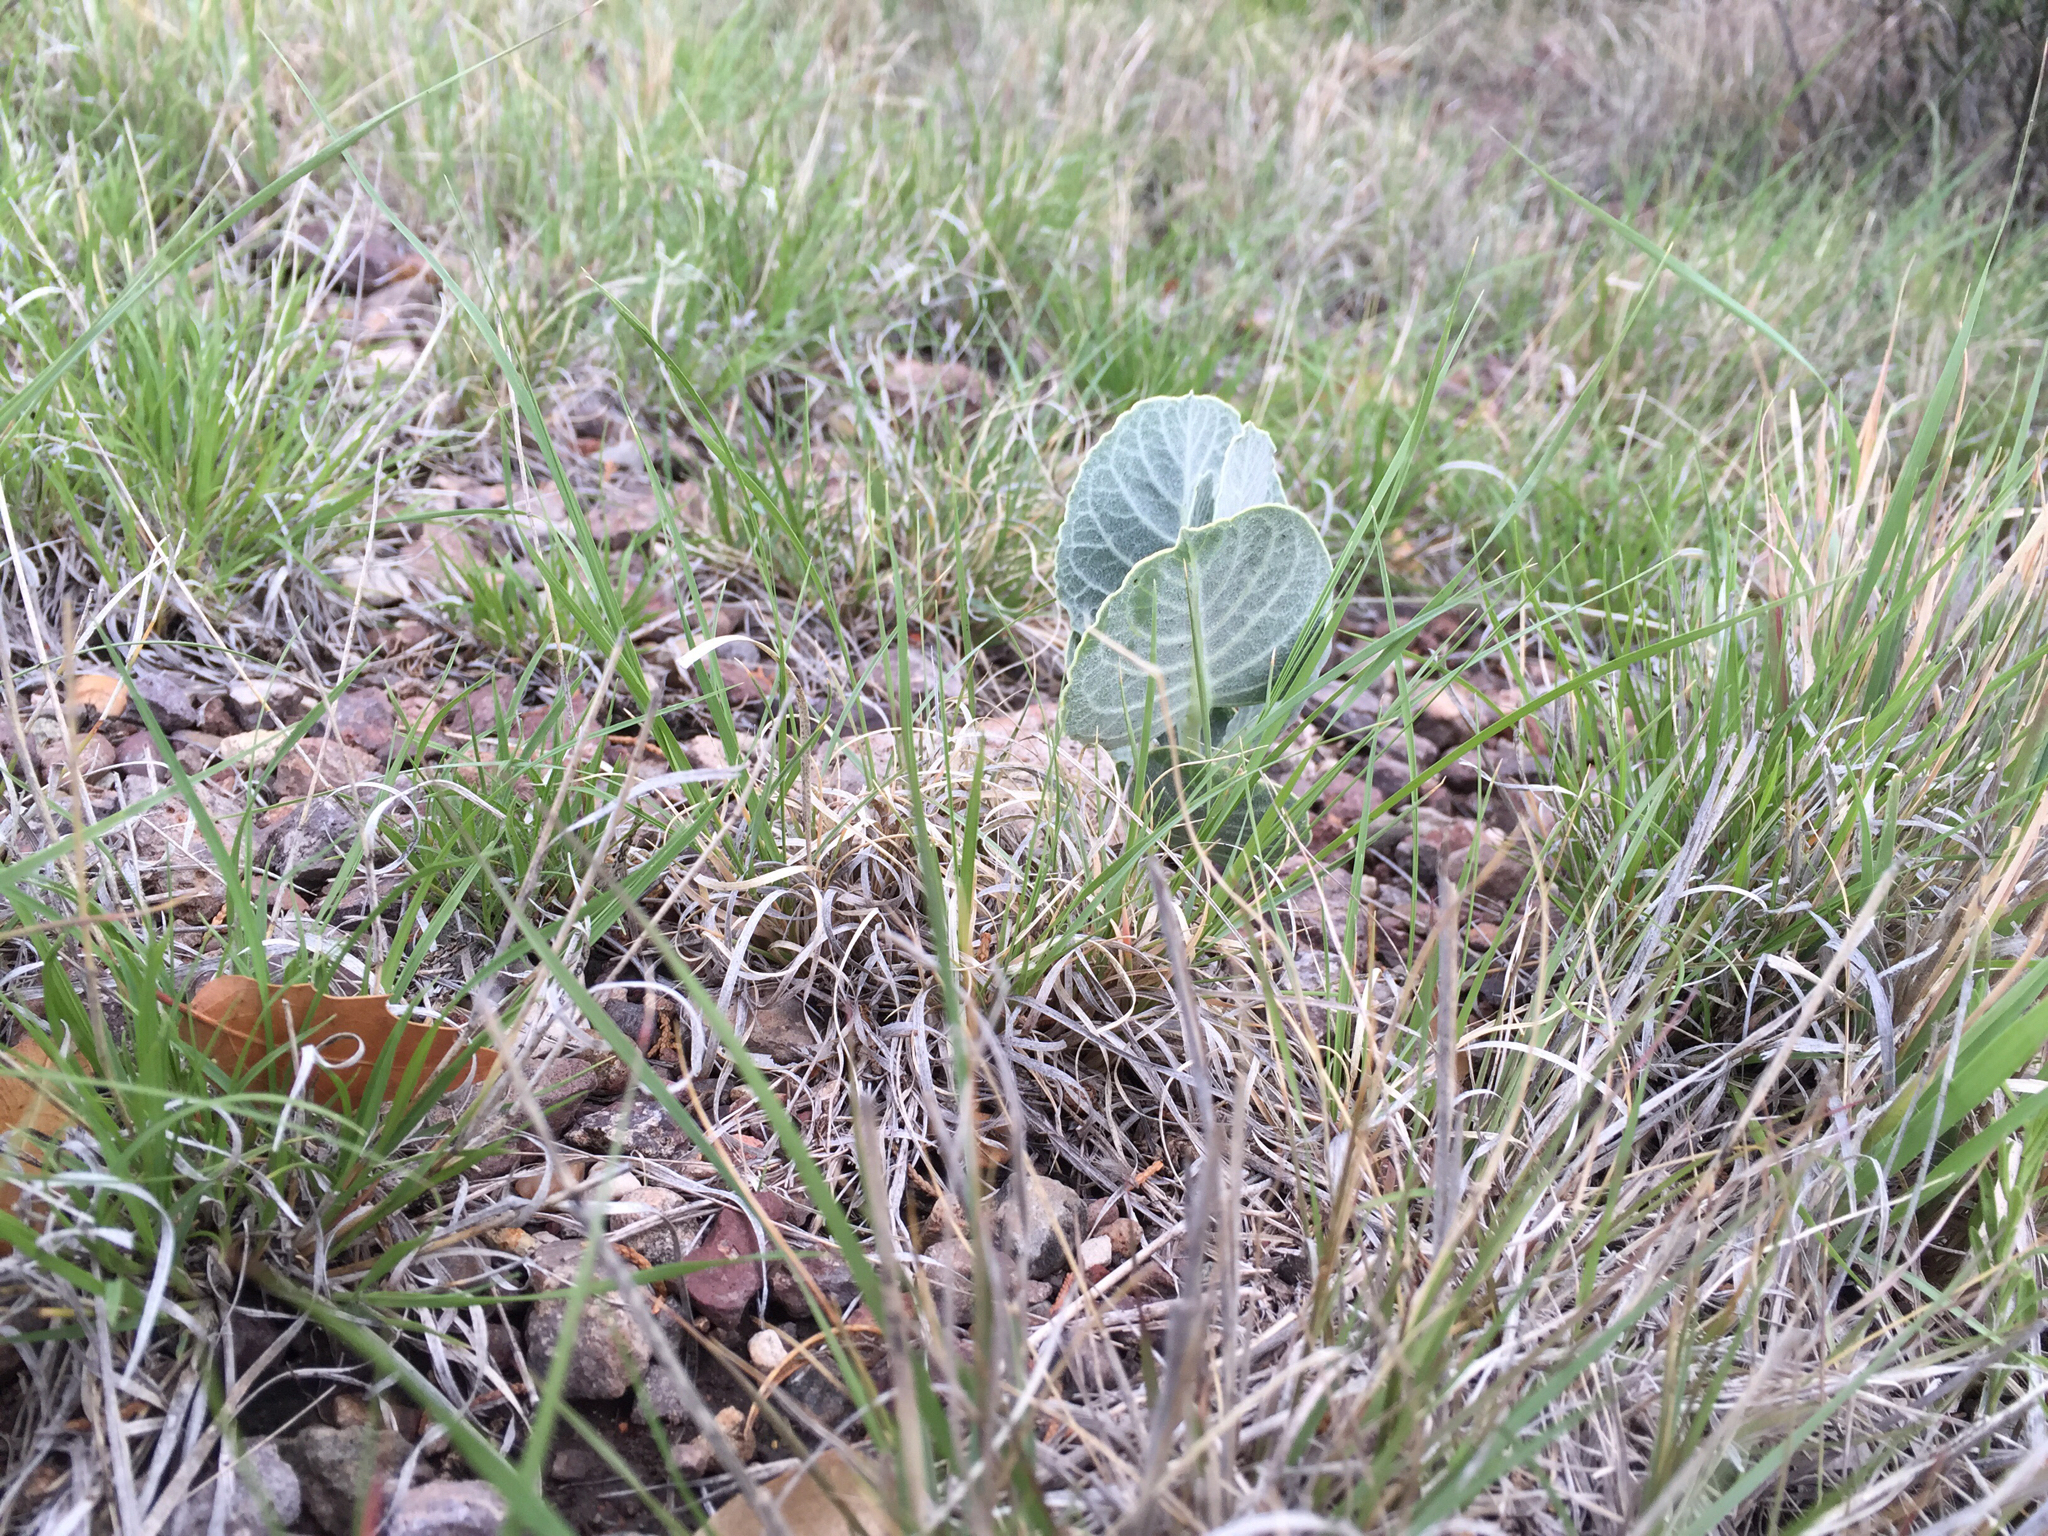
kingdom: Plantae
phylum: Tracheophyta
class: Magnoliopsida
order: Gentianales
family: Apocynaceae
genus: Asclepias
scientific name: Asclepias nummularia
